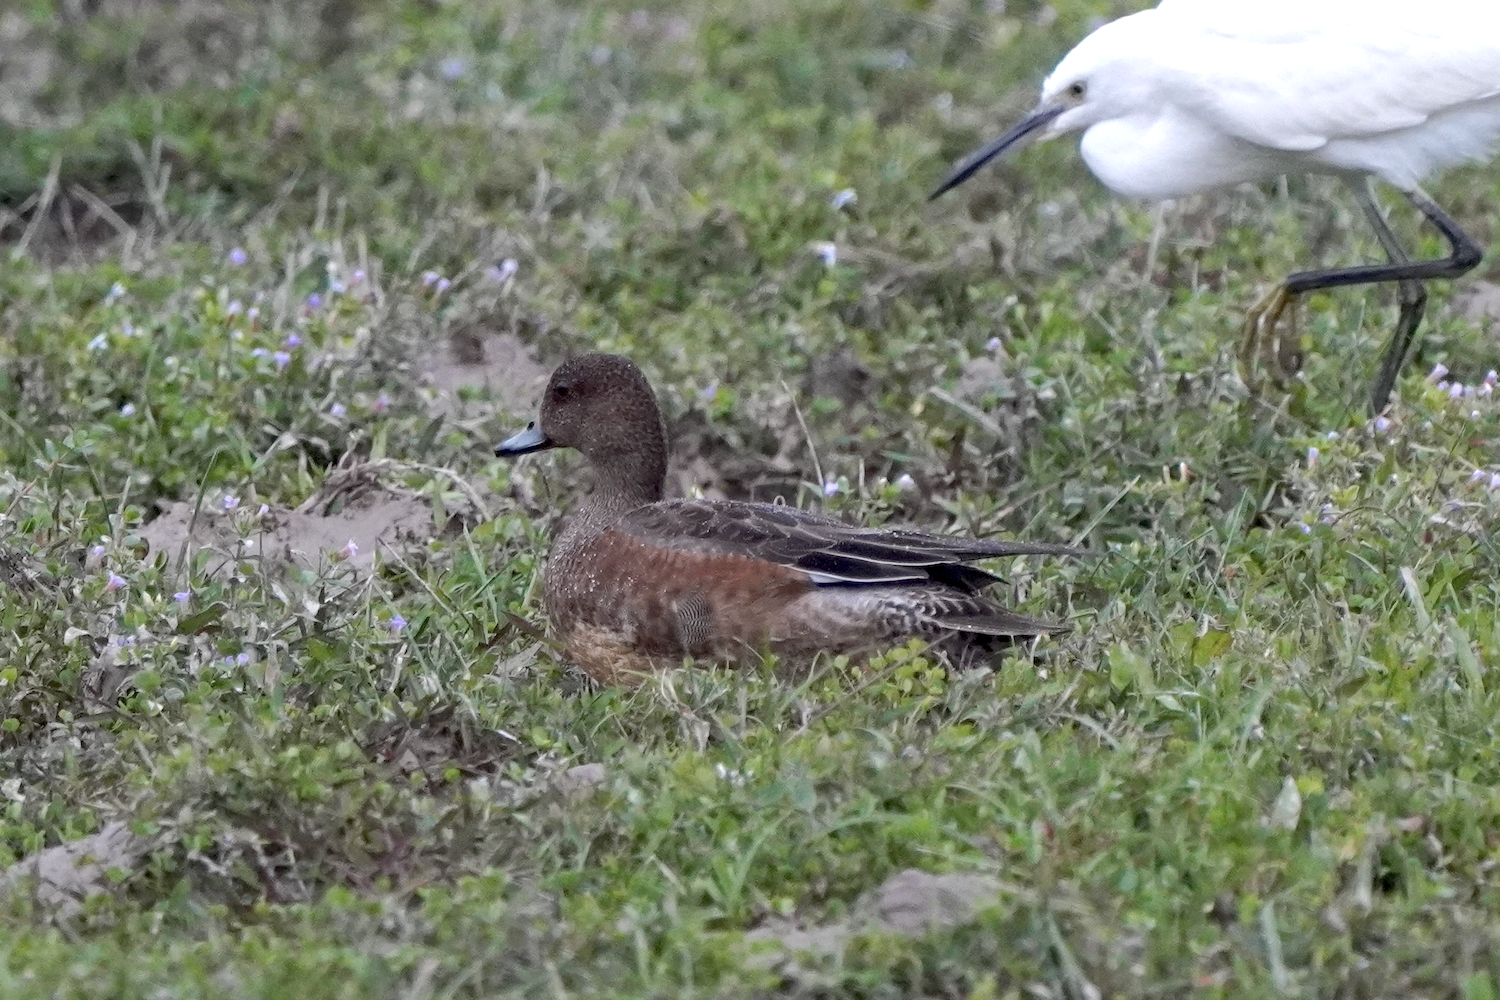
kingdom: Animalia
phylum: Chordata
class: Aves
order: Anseriformes
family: Anatidae
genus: Mareca
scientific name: Mareca penelope
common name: Eurasian wigeon
